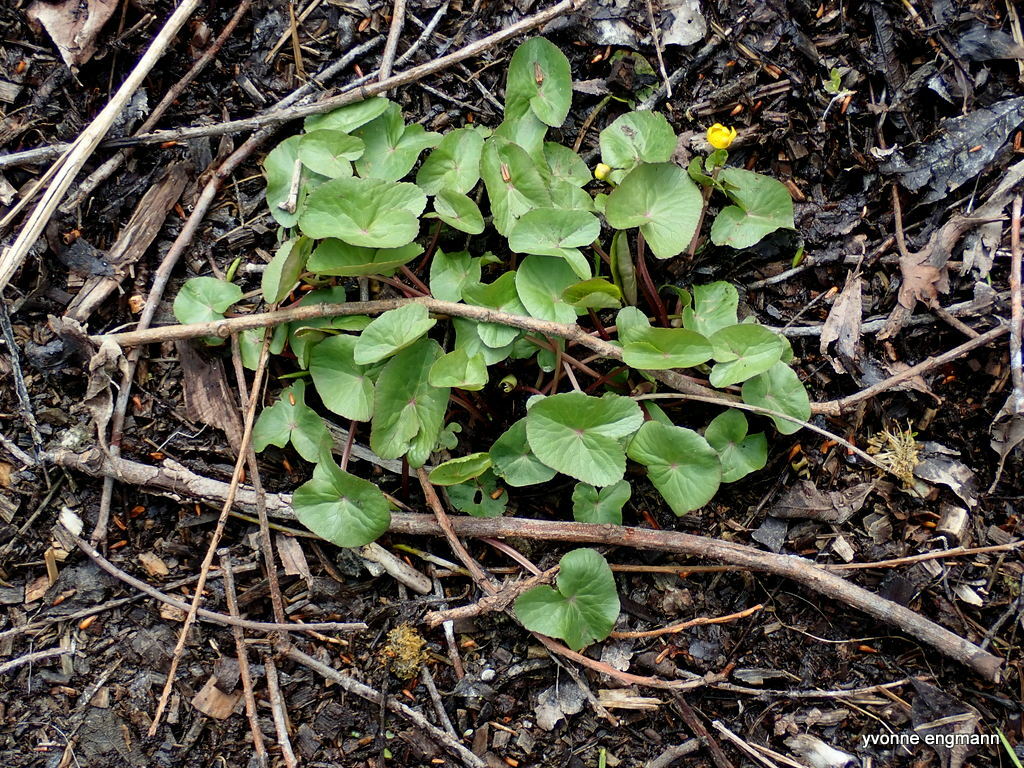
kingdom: Plantae
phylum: Tracheophyta
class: Magnoliopsida
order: Ranunculales
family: Ranunculaceae
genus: Caltha
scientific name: Caltha palustris
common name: Marsh marigold
